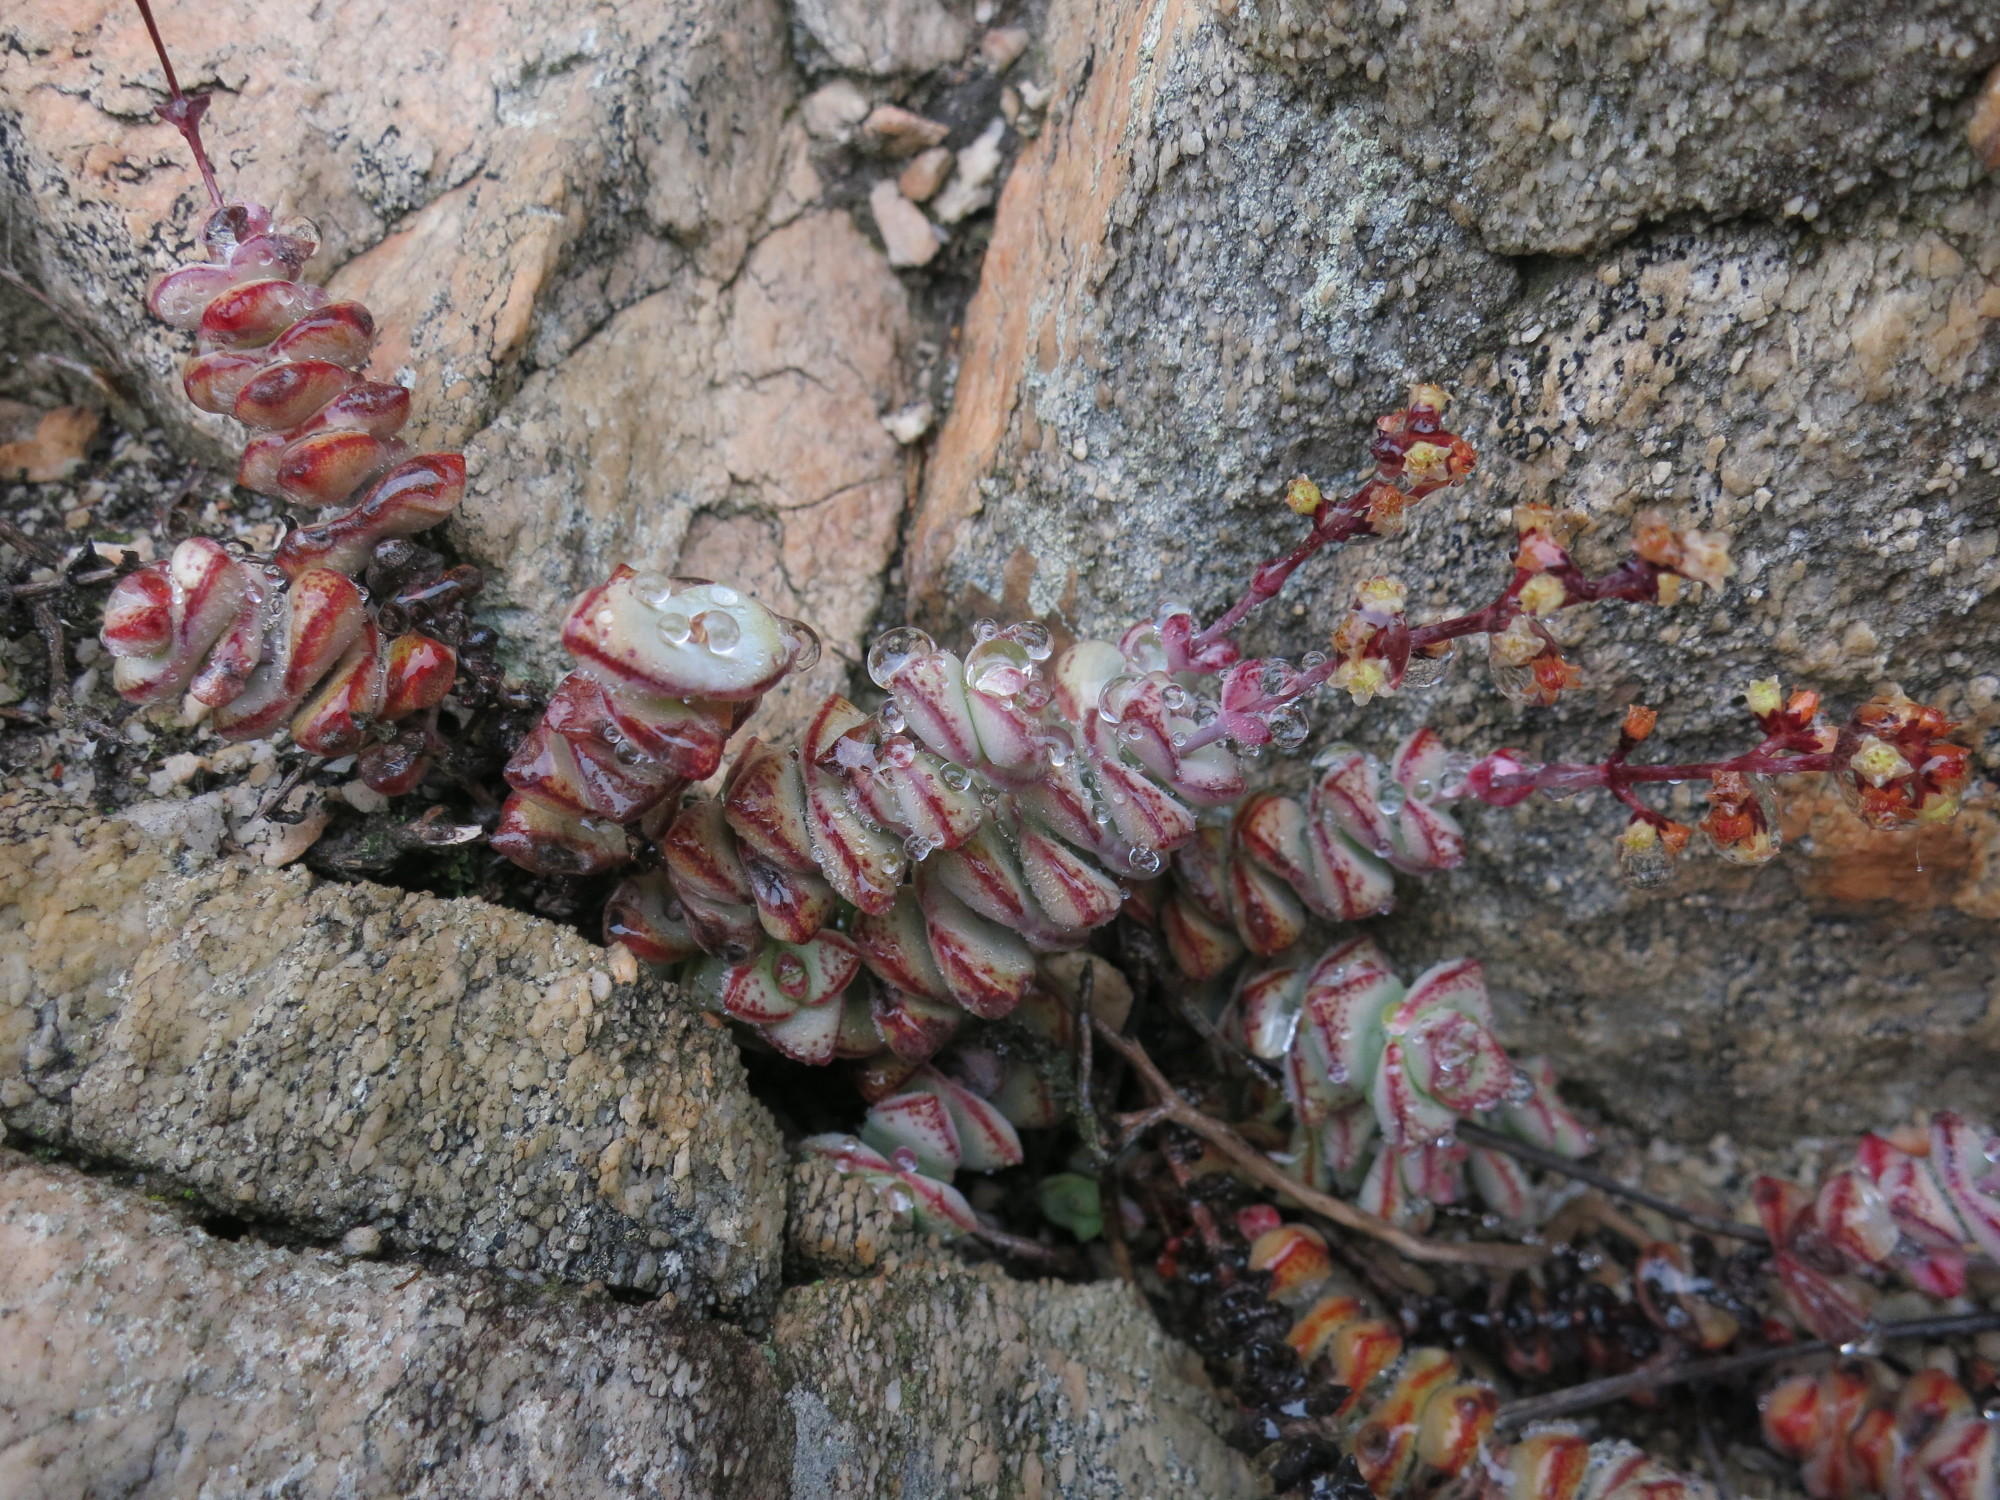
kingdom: Plantae
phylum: Tracheophyta
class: Magnoliopsida
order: Saxifragales
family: Crassulaceae
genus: Crassula
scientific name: Crassula perforata
